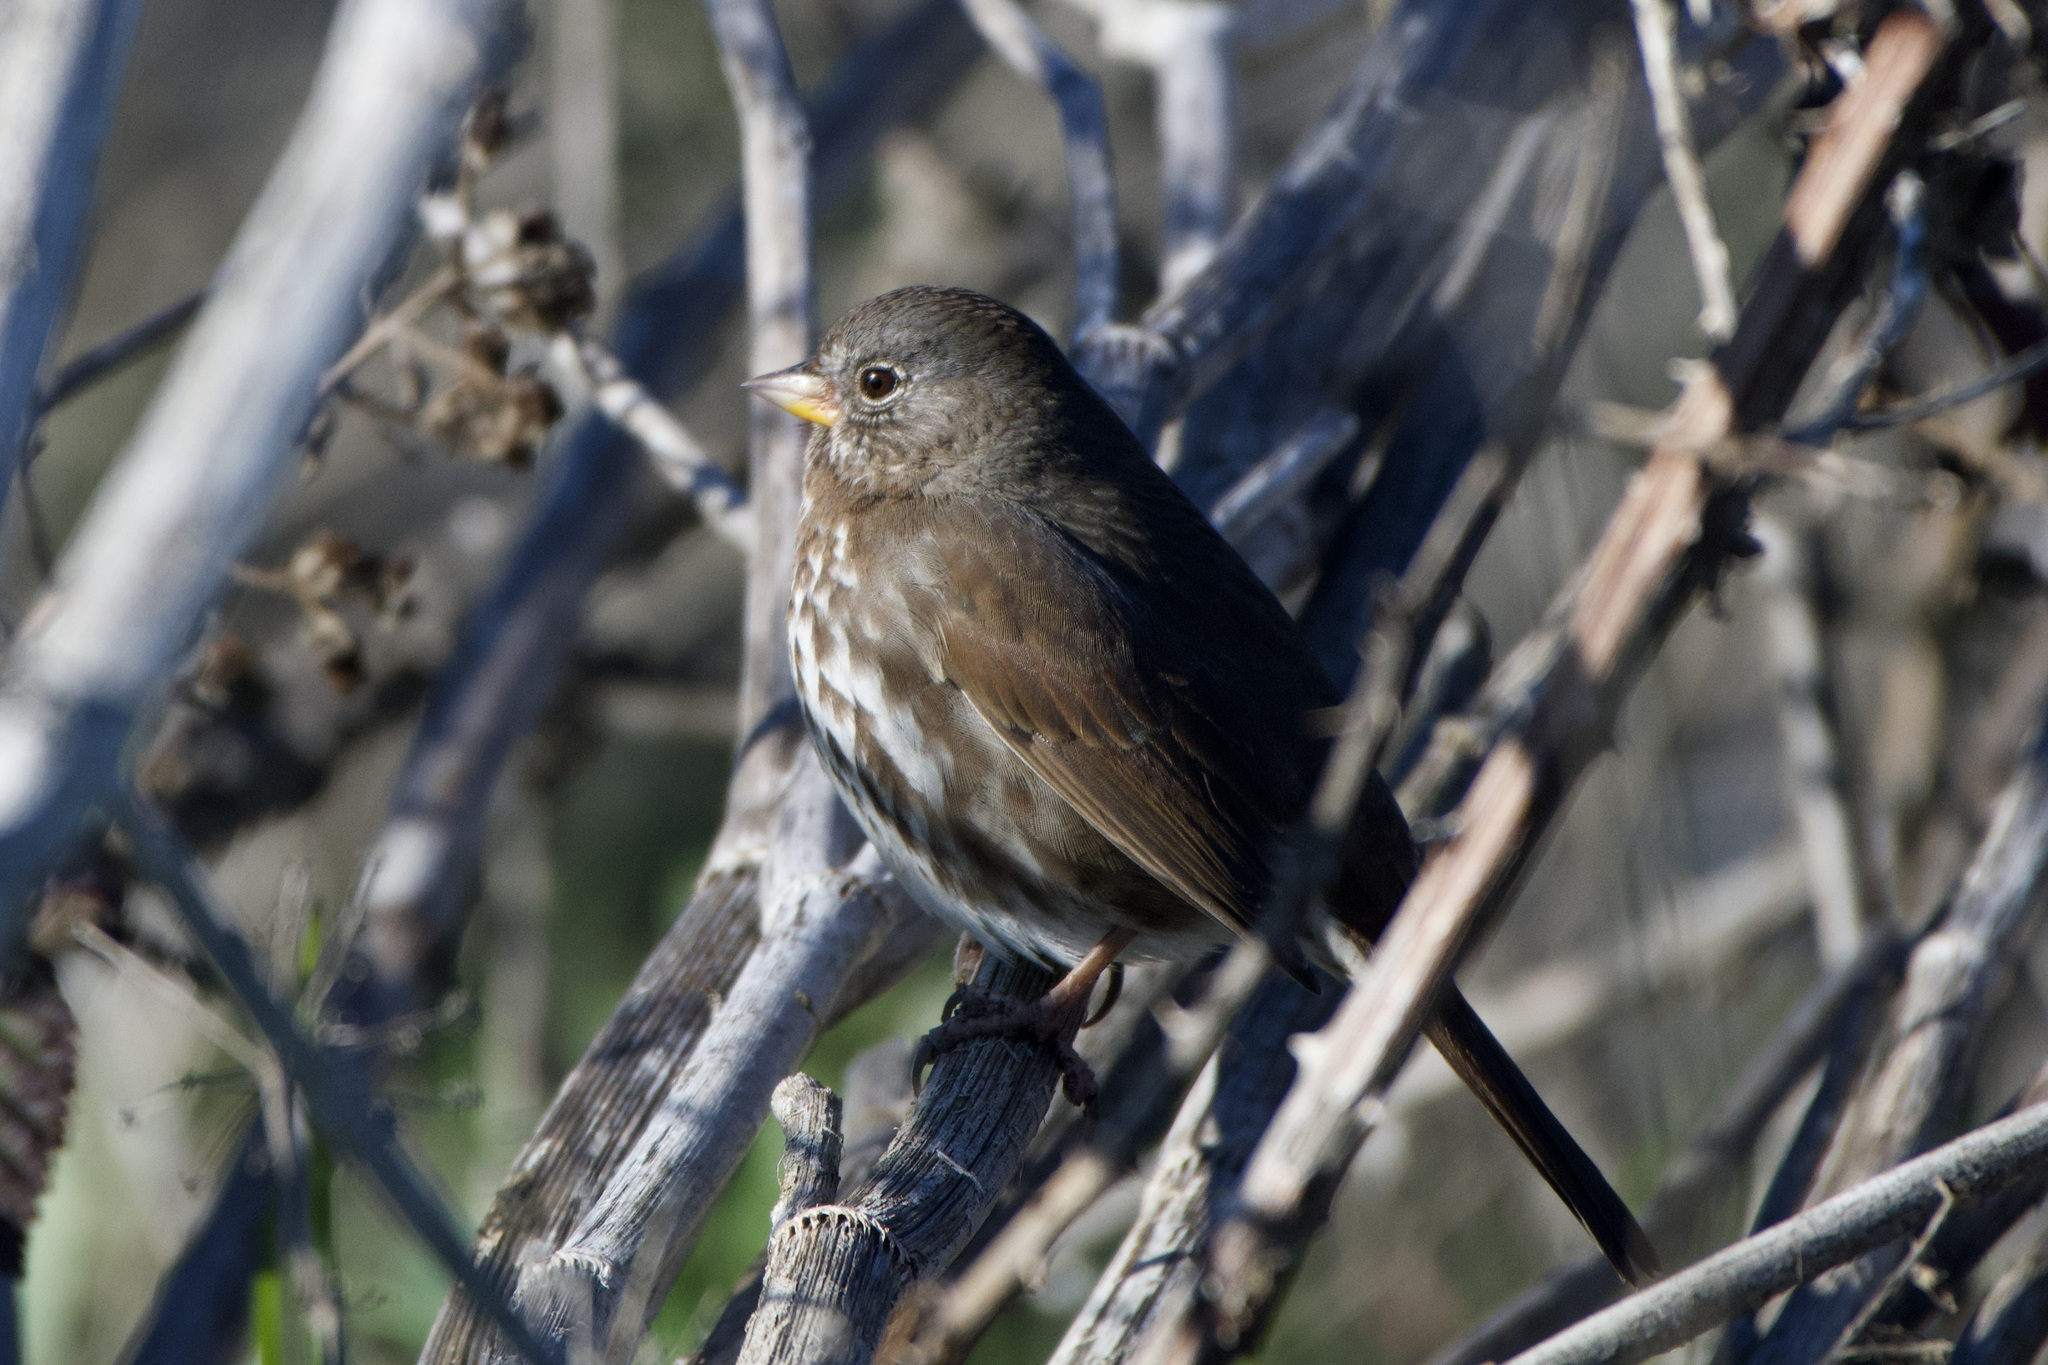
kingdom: Animalia
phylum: Chordata
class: Aves
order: Passeriformes
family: Passerellidae
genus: Passerella
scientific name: Passerella iliaca
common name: Fox sparrow
